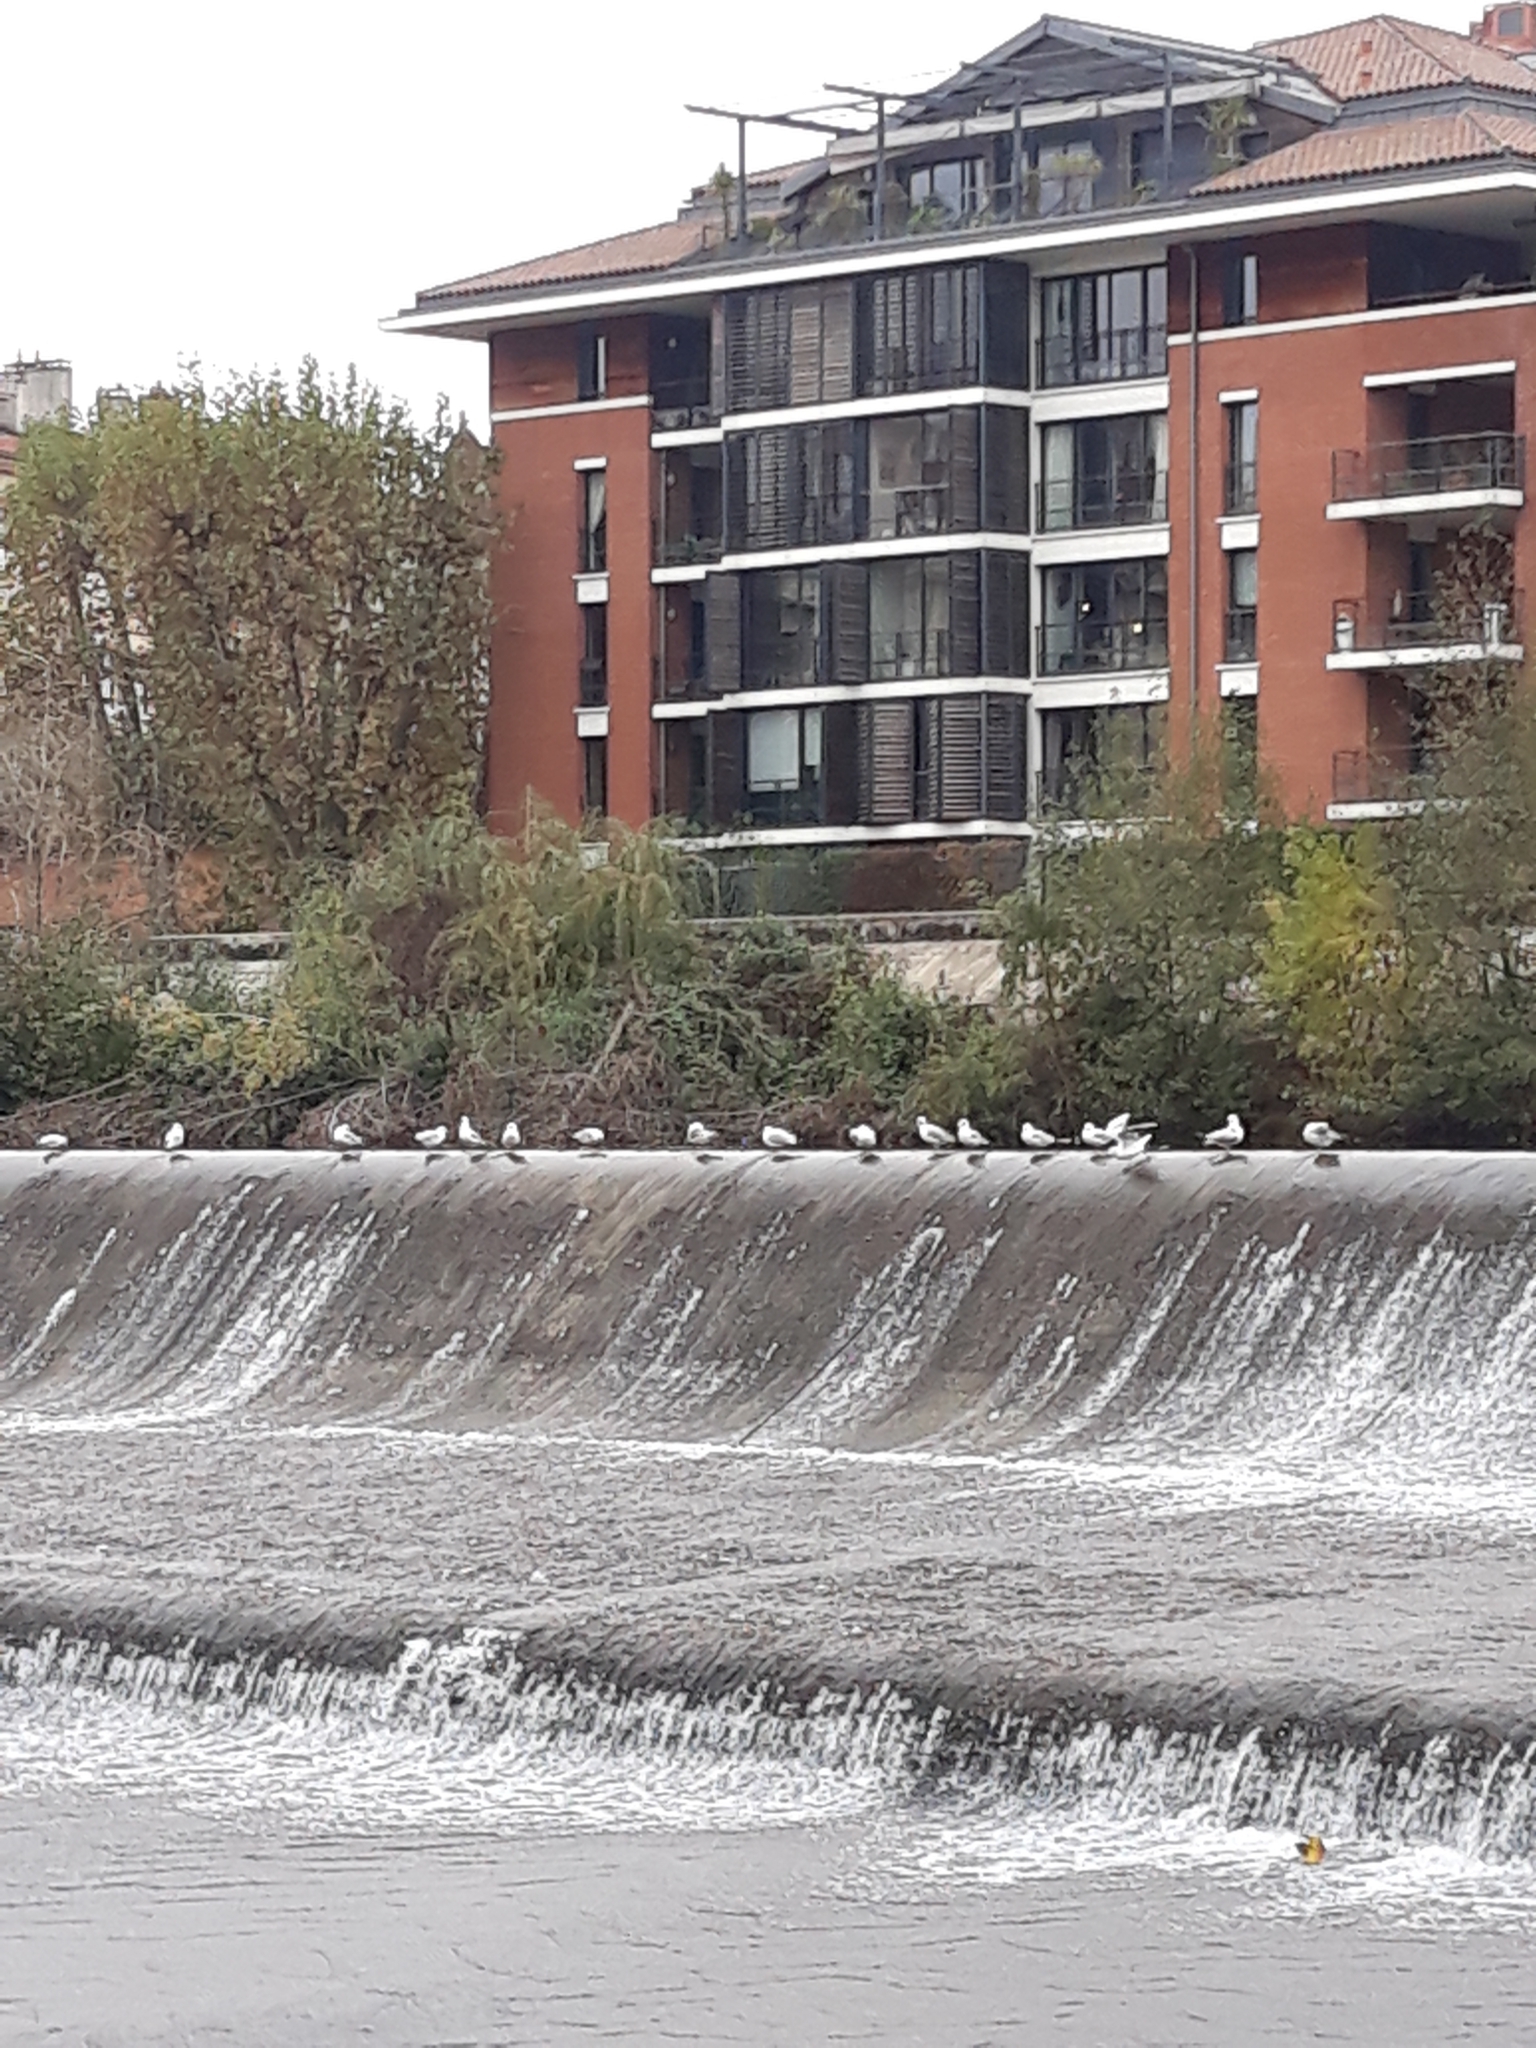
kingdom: Animalia
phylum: Chordata
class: Aves
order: Charadriiformes
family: Laridae
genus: Chroicocephalus
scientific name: Chroicocephalus ridibundus
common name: Black-headed gull
